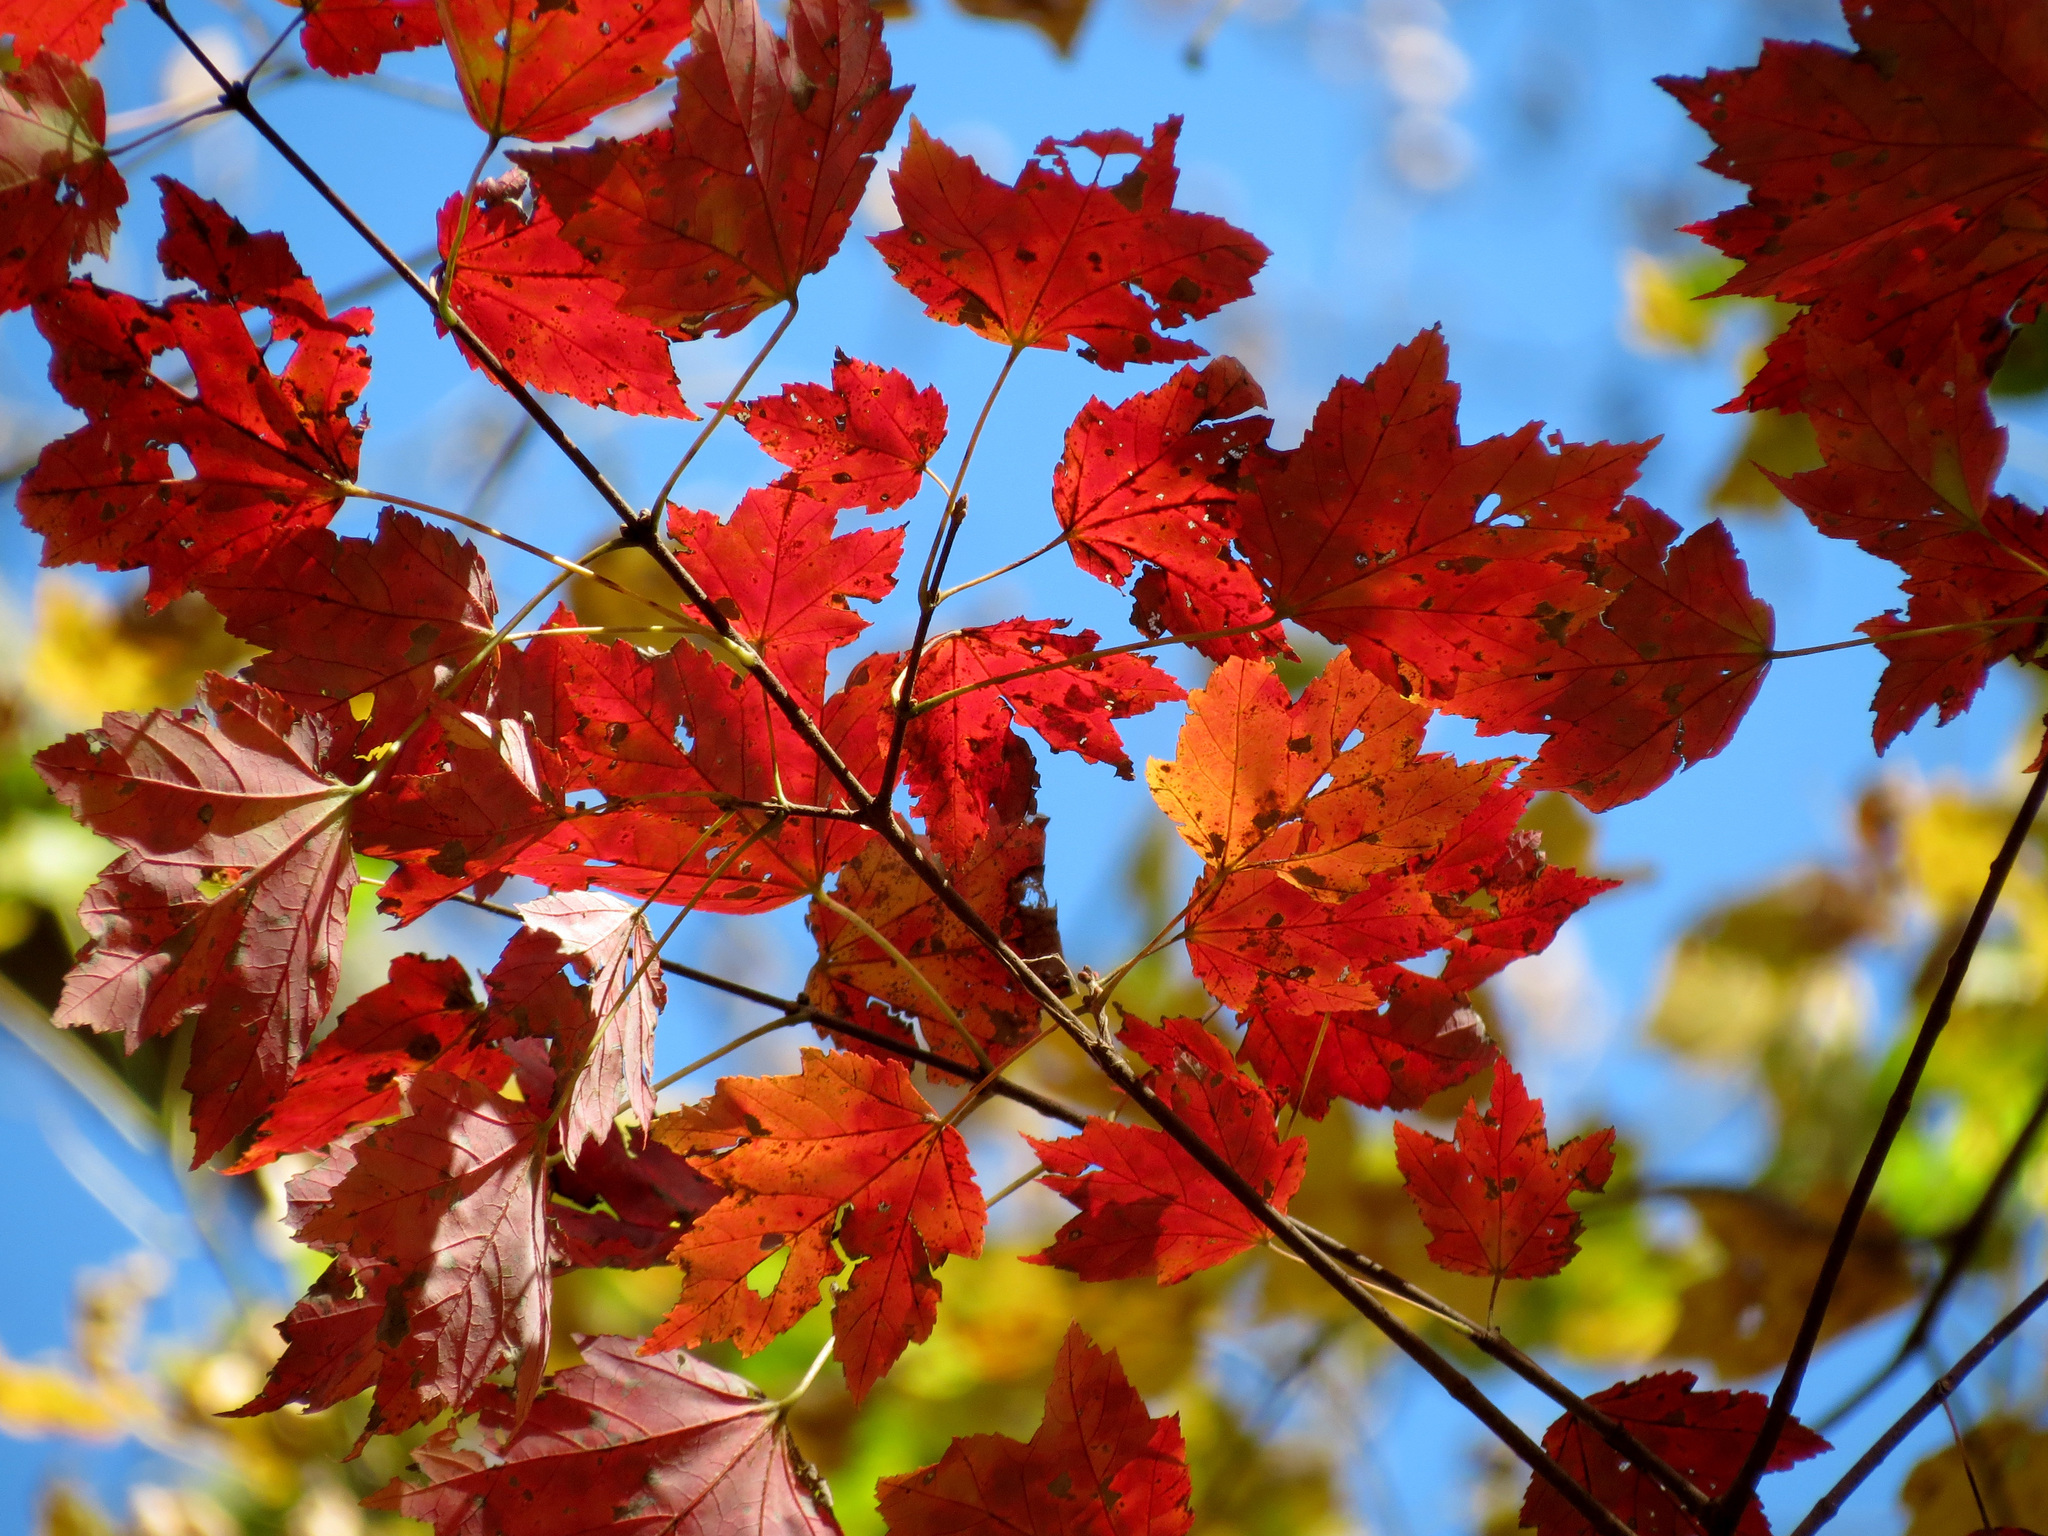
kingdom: Plantae
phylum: Tracheophyta
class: Magnoliopsida
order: Sapindales
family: Sapindaceae
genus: Acer
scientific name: Acer rubrum
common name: Red maple
